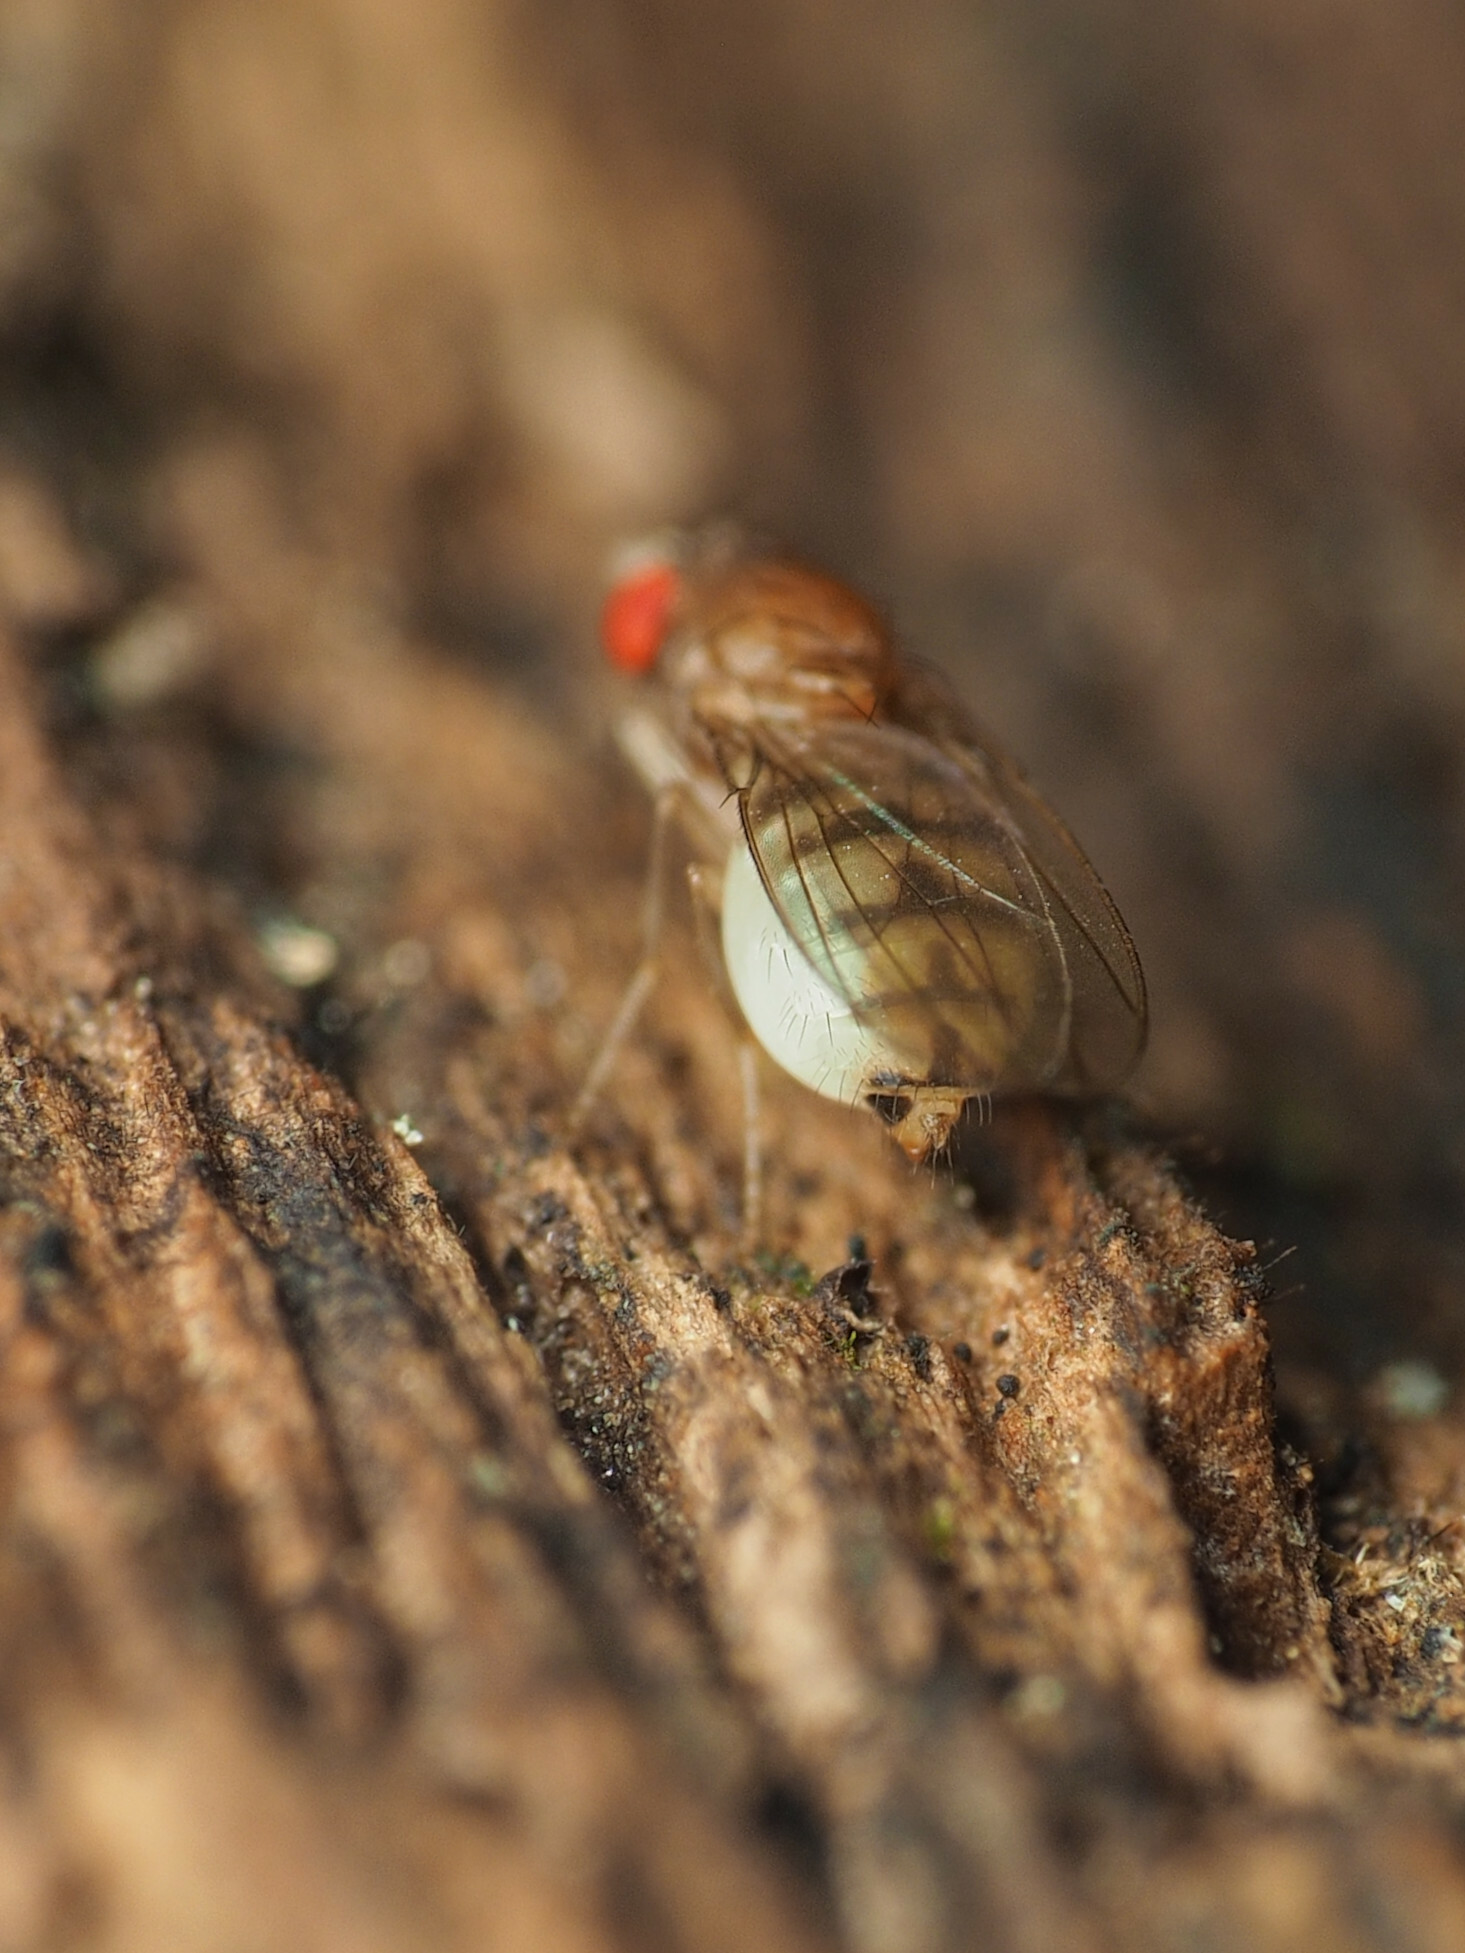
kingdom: Animalia
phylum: Arthropoda
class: Insecta
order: Diptera
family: Drosophilidae
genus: Hirtodrosophila
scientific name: Hirtodrosophila duncani
